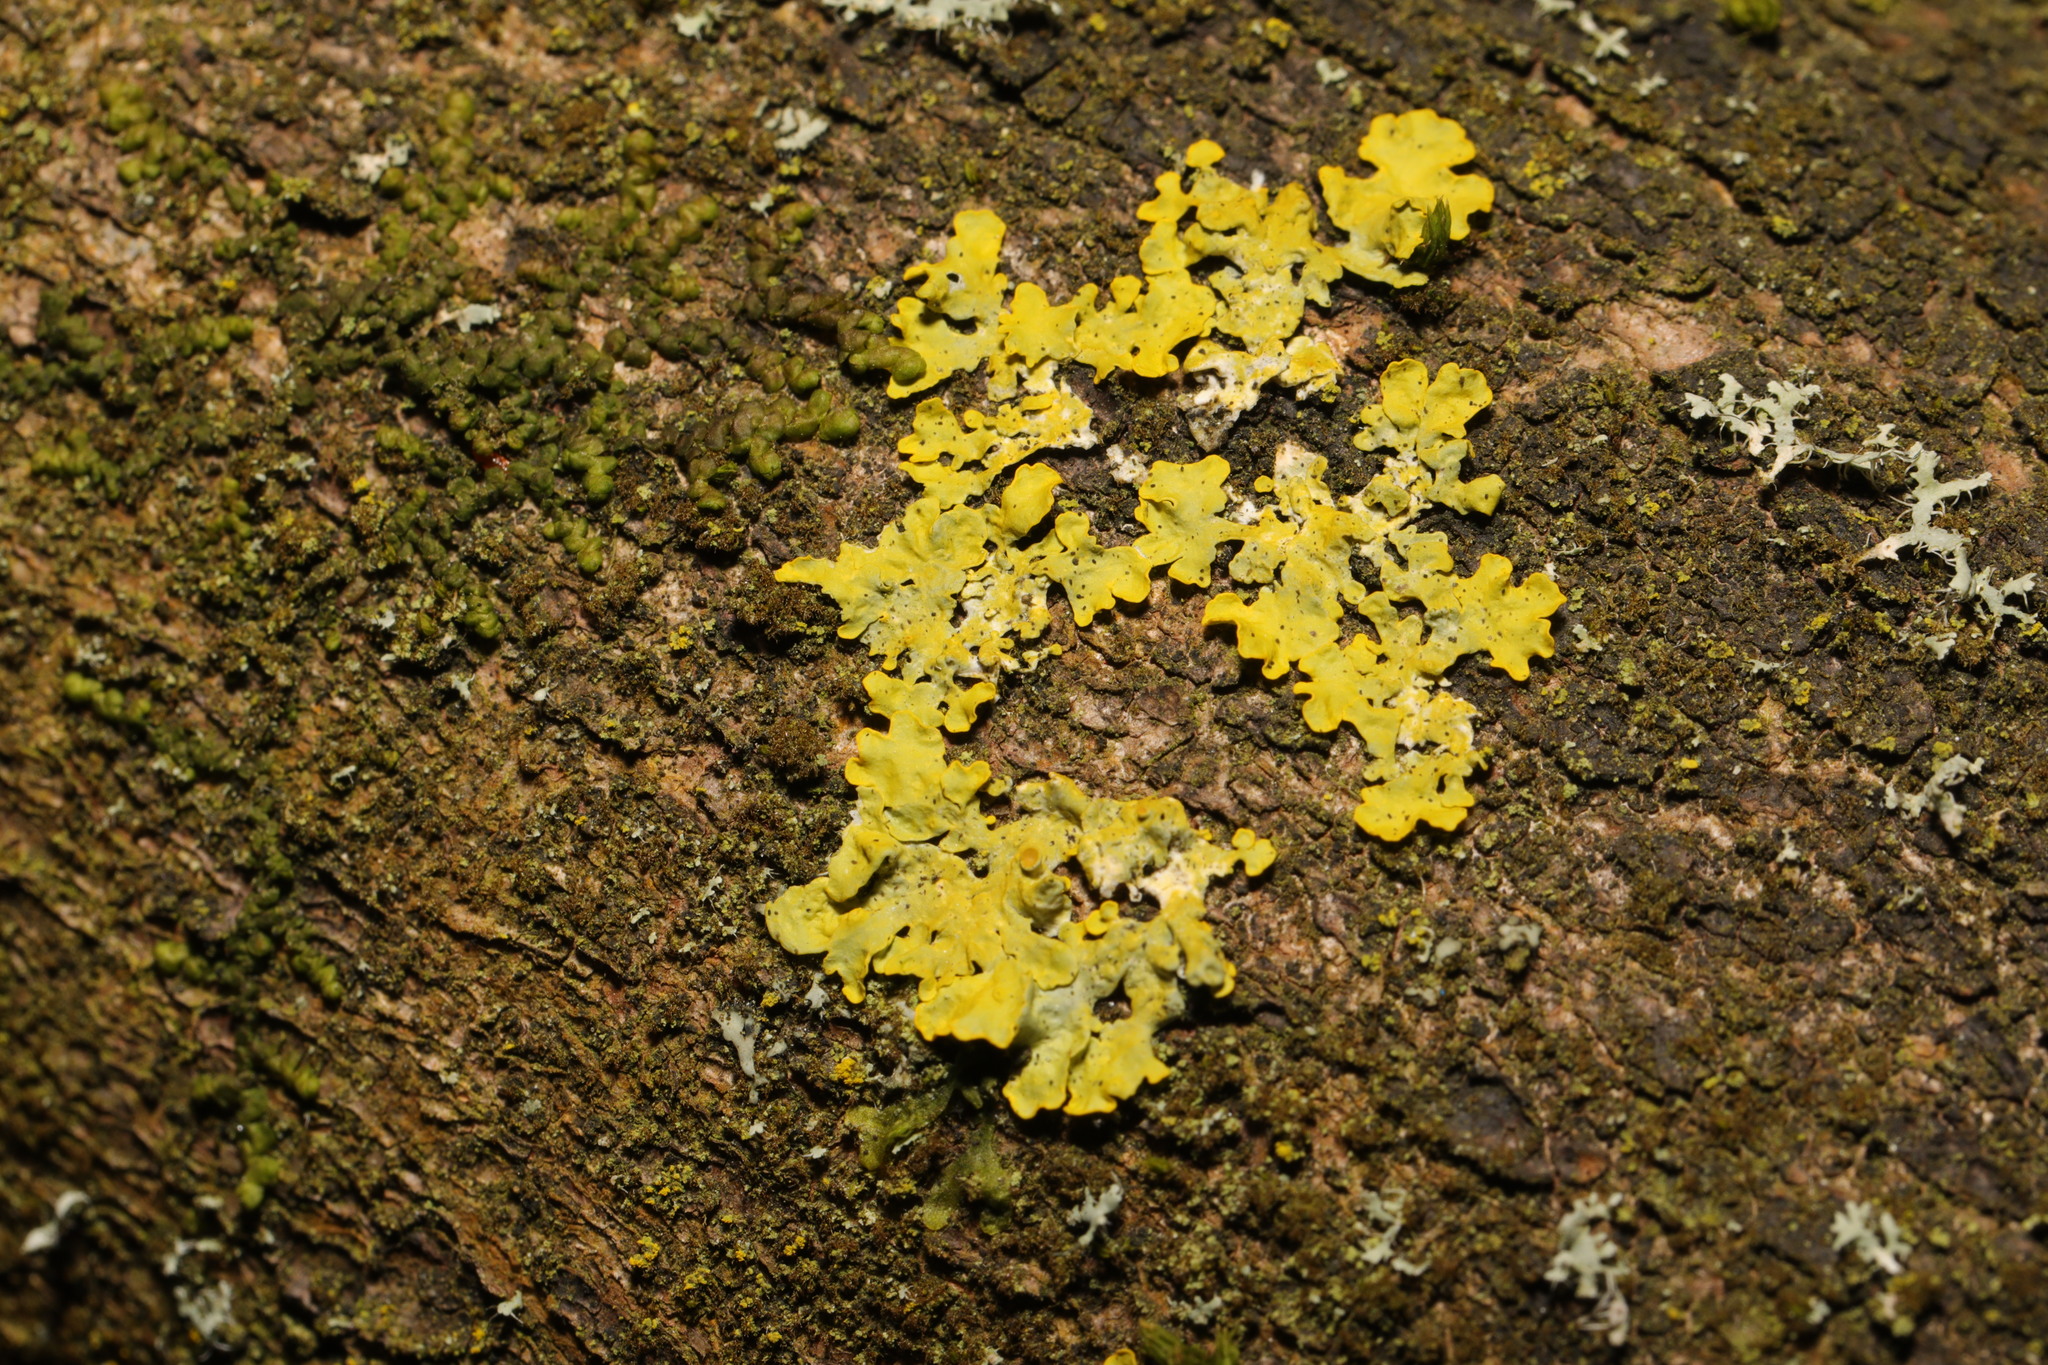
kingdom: Fungi
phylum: Ascomycota
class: Lecanoromycetes
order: Teloschistales
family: Teloschistaceae
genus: Xanthoria
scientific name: Xanthoria parietina
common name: Common orange lichen
